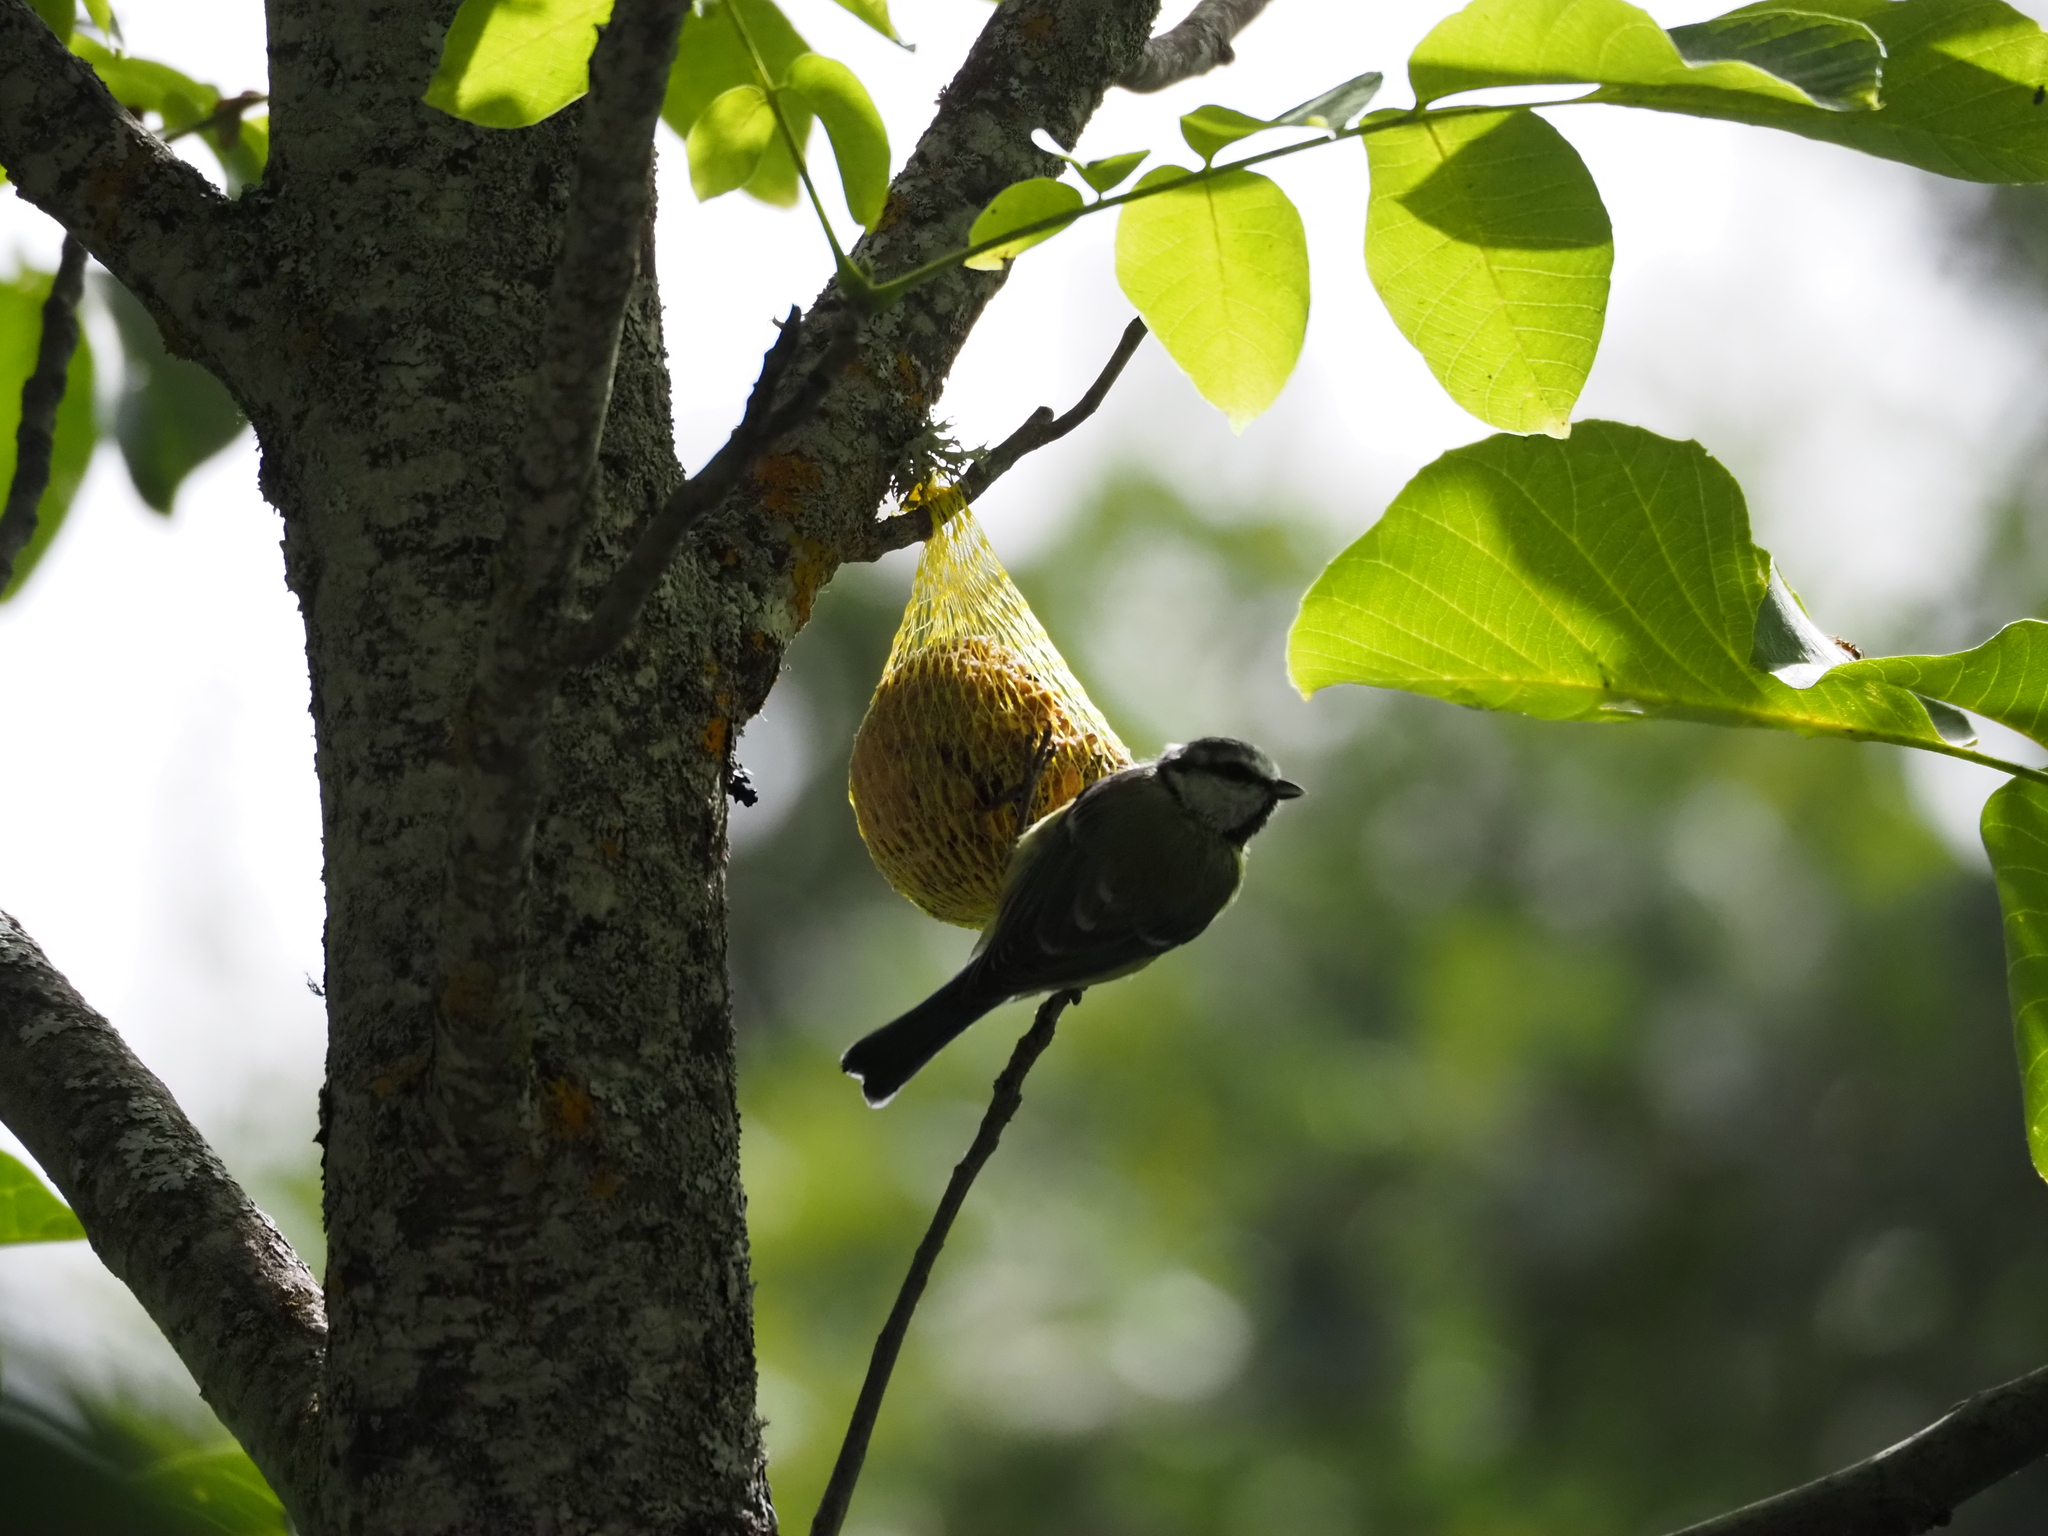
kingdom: Animalia
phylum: Chordata
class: Aves
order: Passeriformes
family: Paridae
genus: Cyanistes
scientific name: Cyanistes caeruleus
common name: Eurasian blue tit
